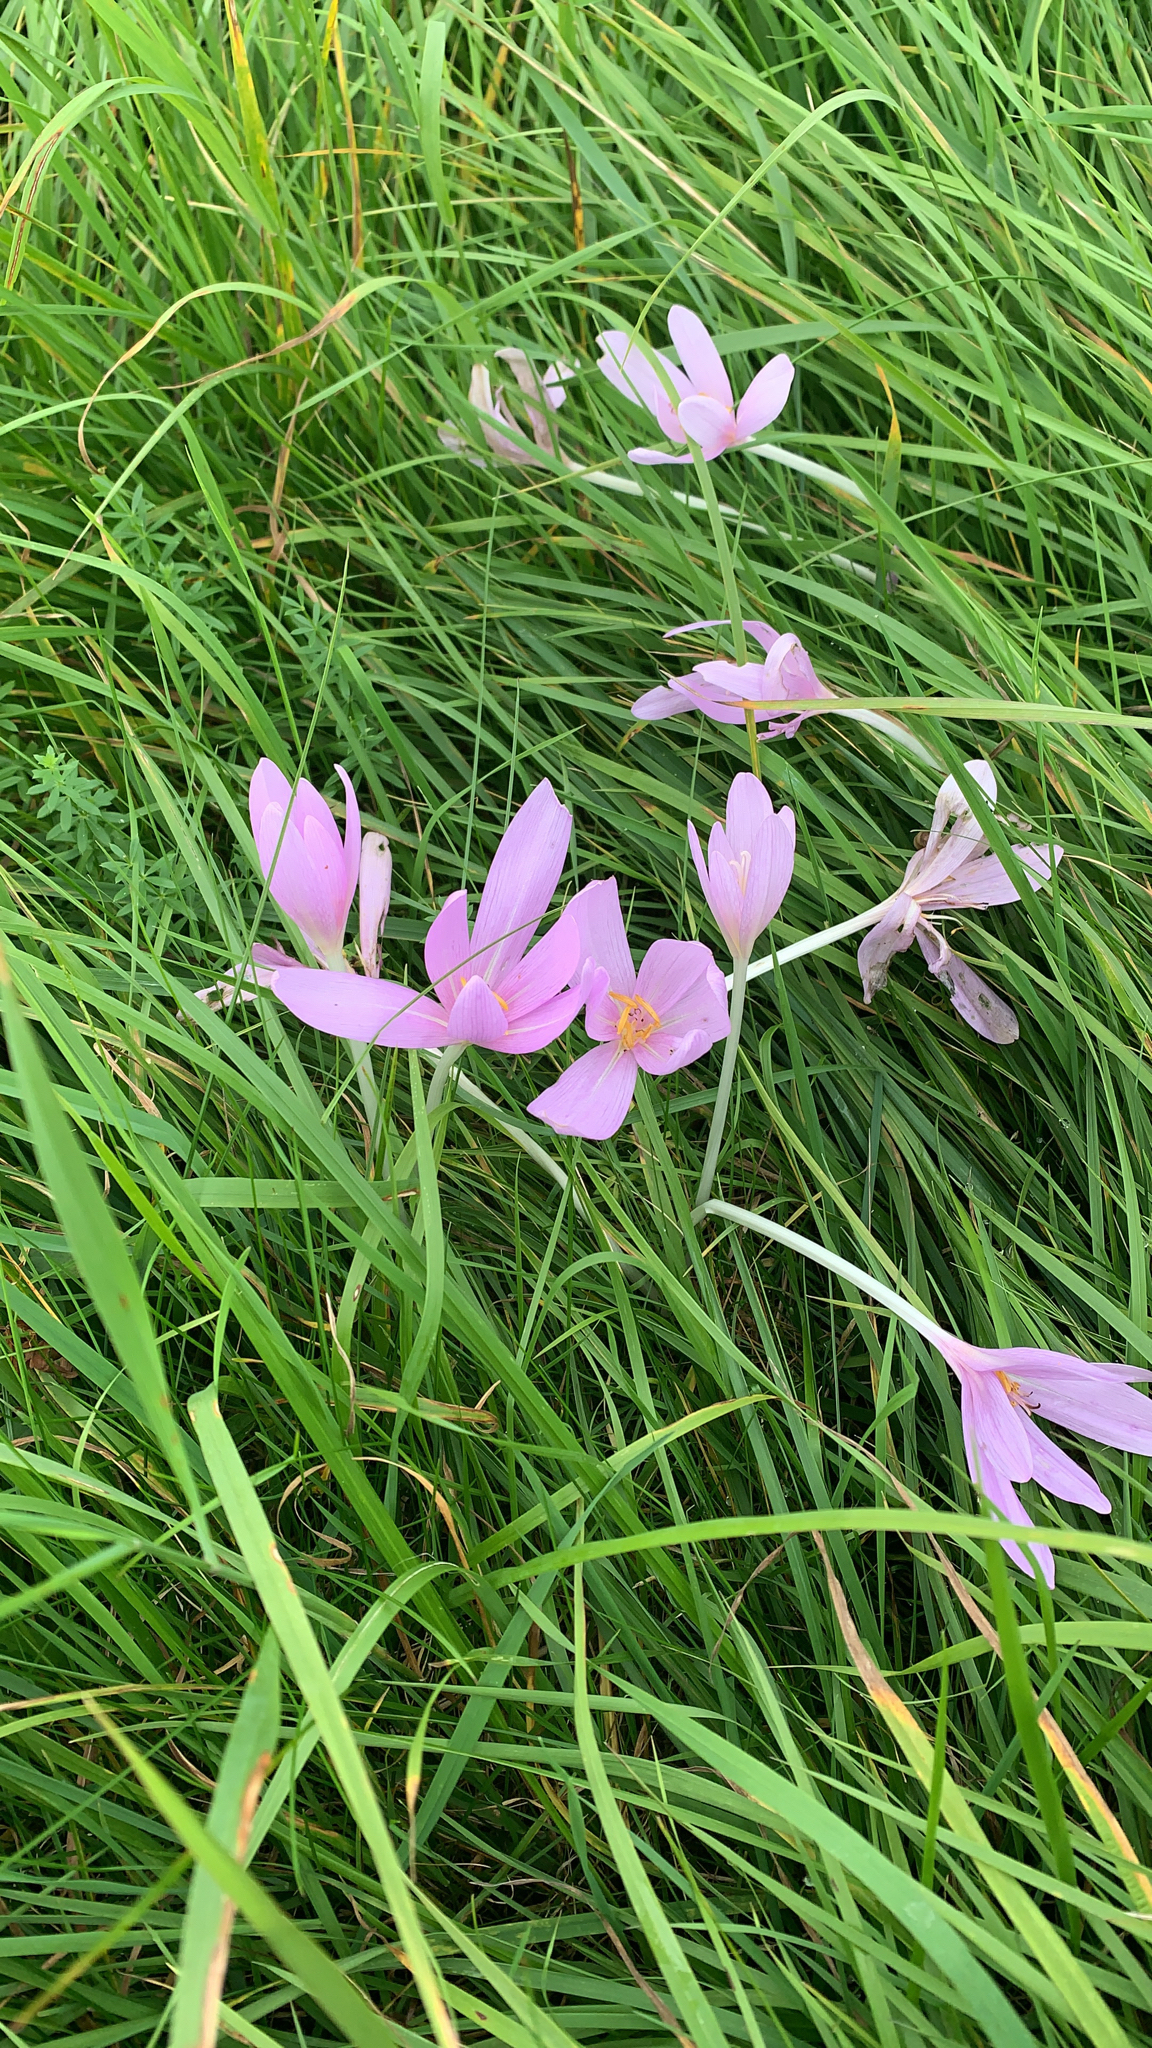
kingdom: Plantae
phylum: Tracheophyta
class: Liliopsida
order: Liliales
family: Colchicaceae
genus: Colchicum
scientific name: Colchicum autumnale
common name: Autumn crocus
